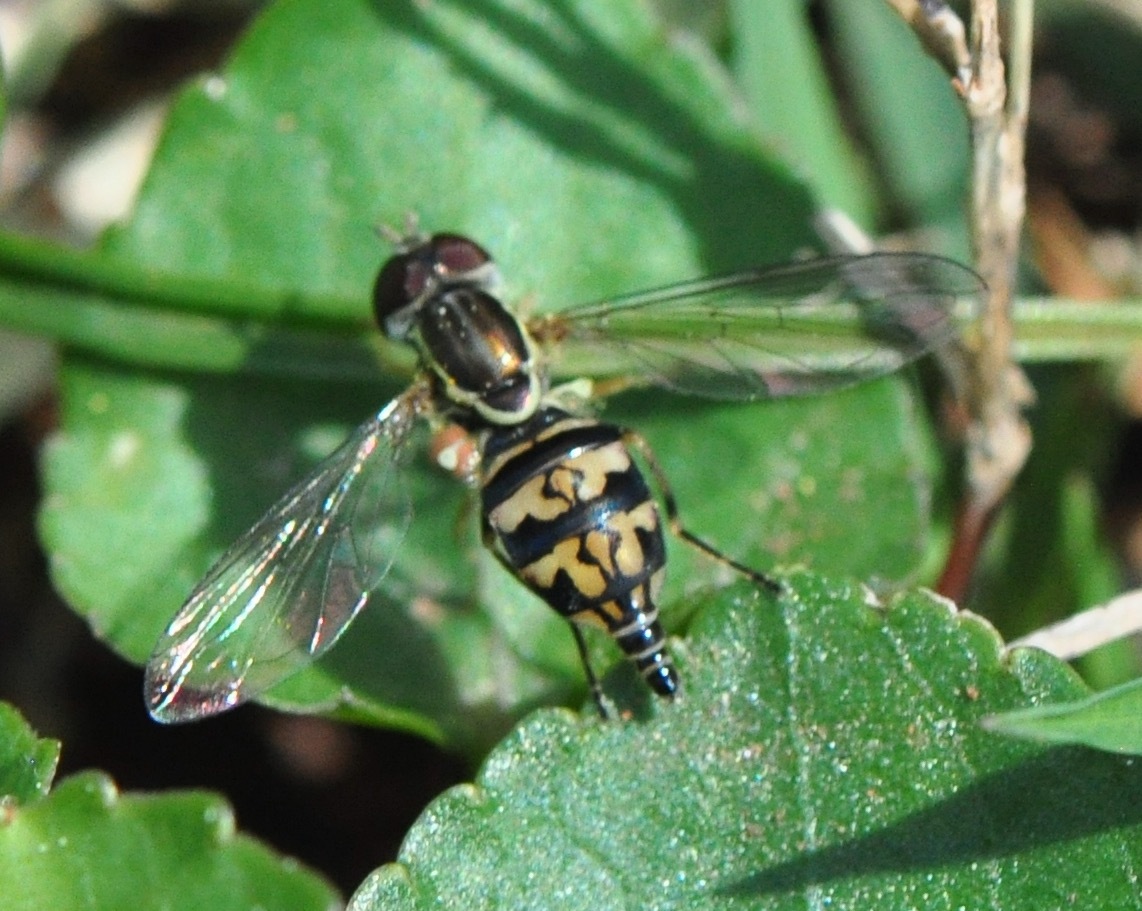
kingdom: Animalia
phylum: Arthropoda
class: Insecta
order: Diptera
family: Syrphidae
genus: Toxomerus
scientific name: Toxomerus geminatus
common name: Eastern calligrapher
